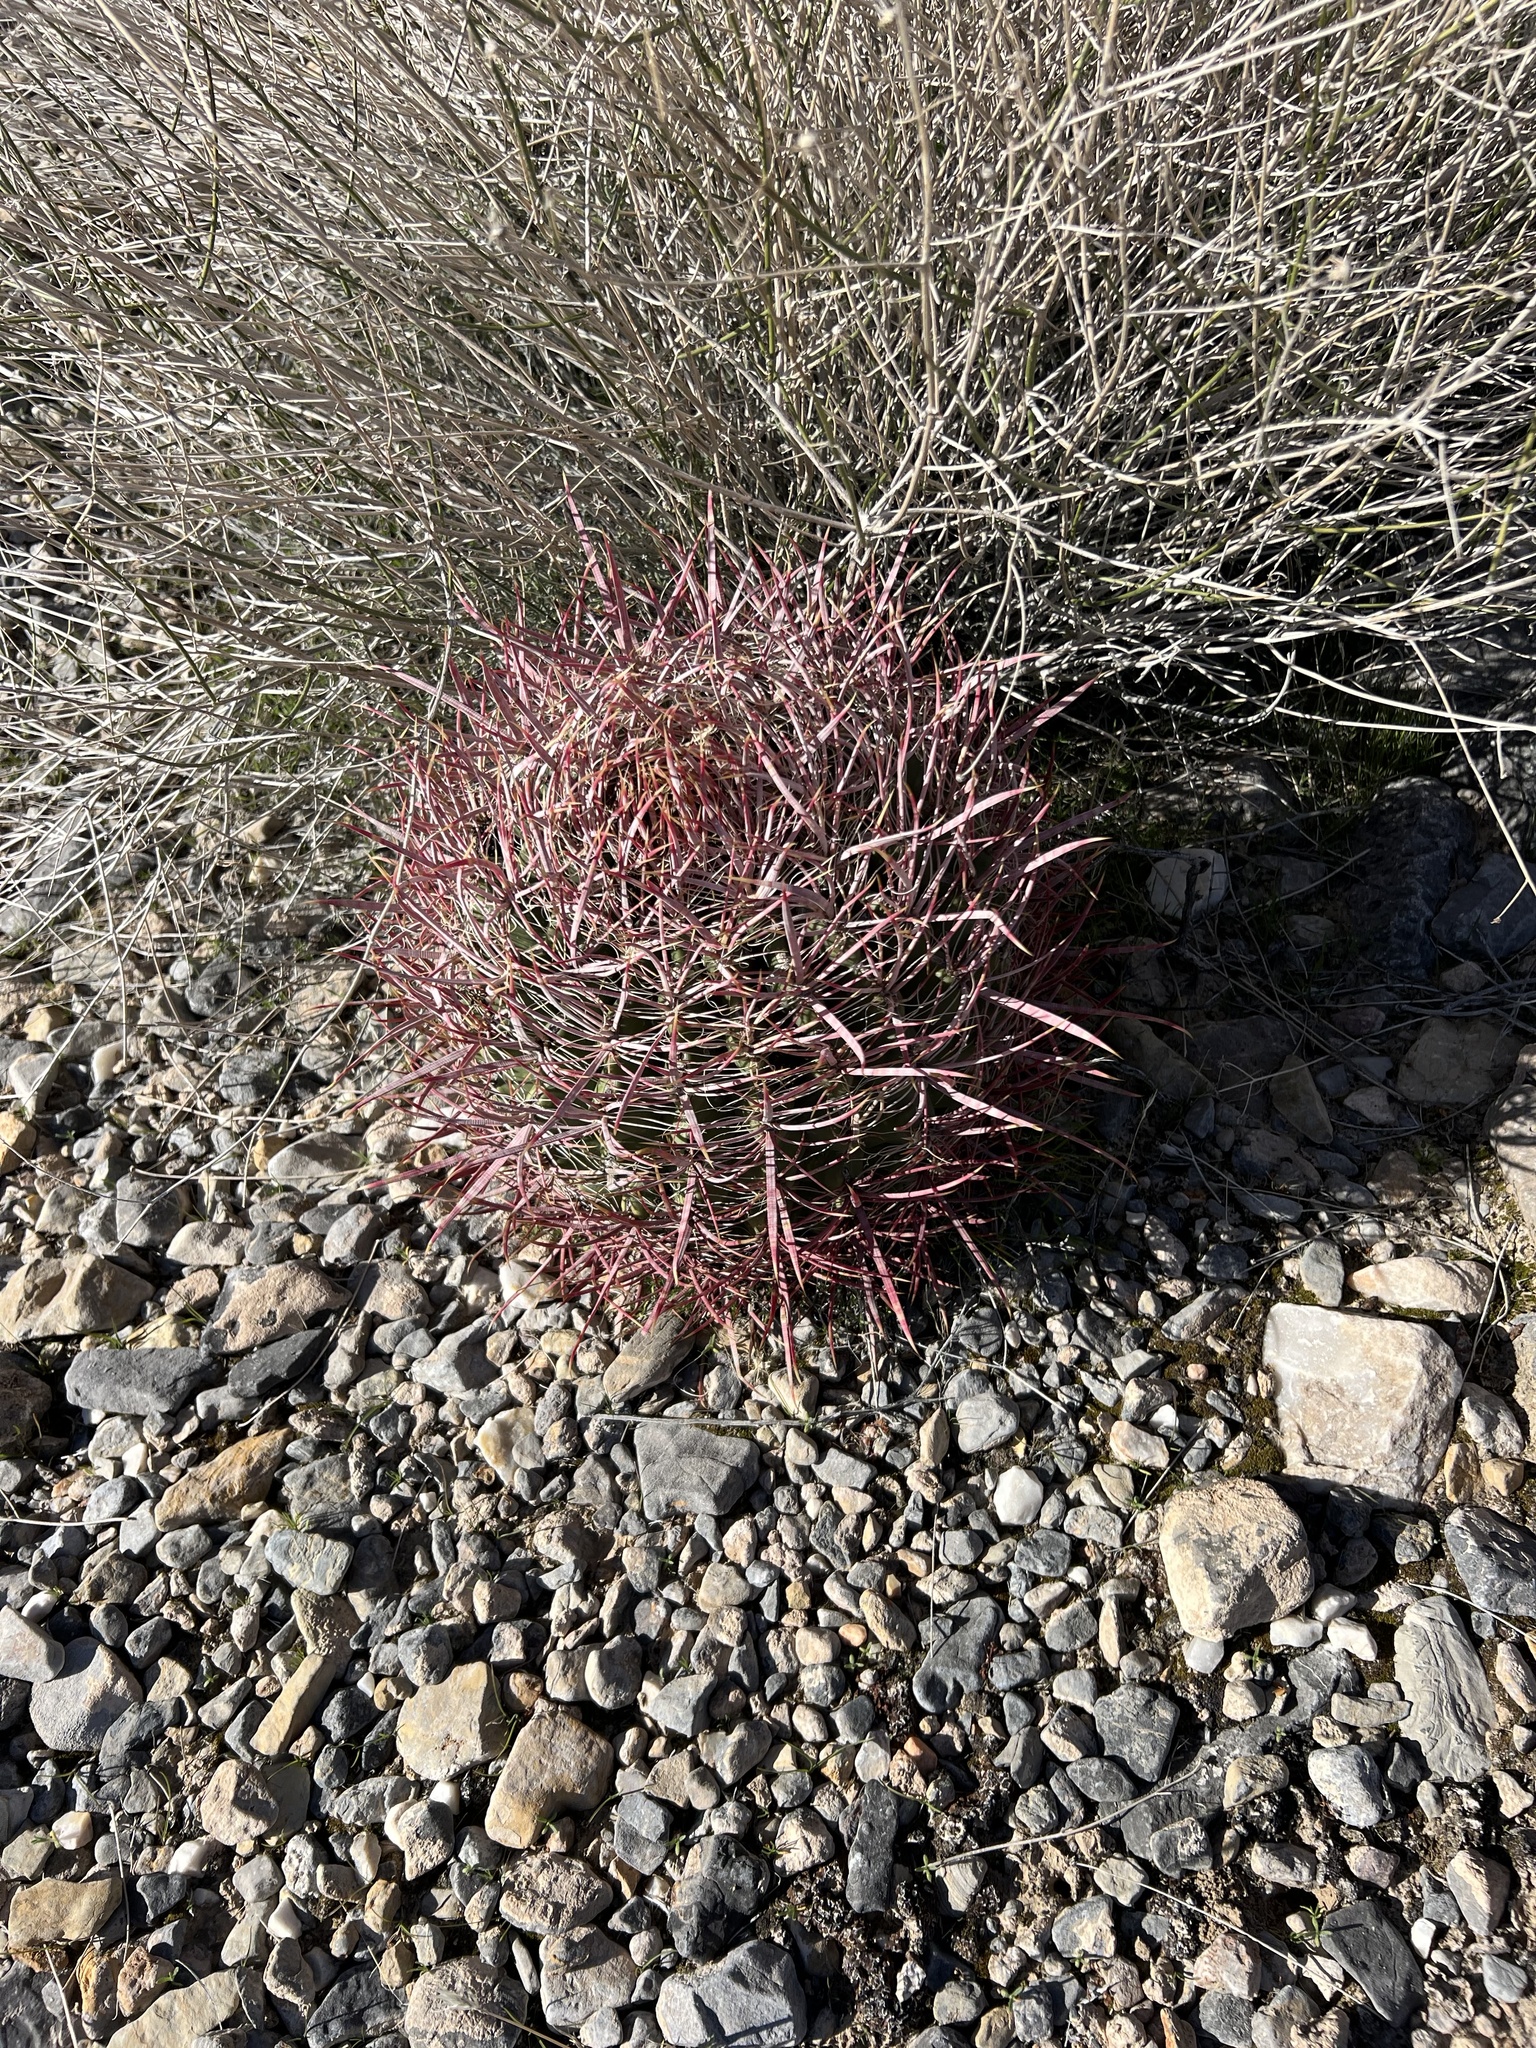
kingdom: Plantae
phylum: Tracheophyta
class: Magnoliopsida
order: Caryophyllales
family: Cactaceae
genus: Ferocactus
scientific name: Ferocactus cylindraceus
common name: California barrel cactus
